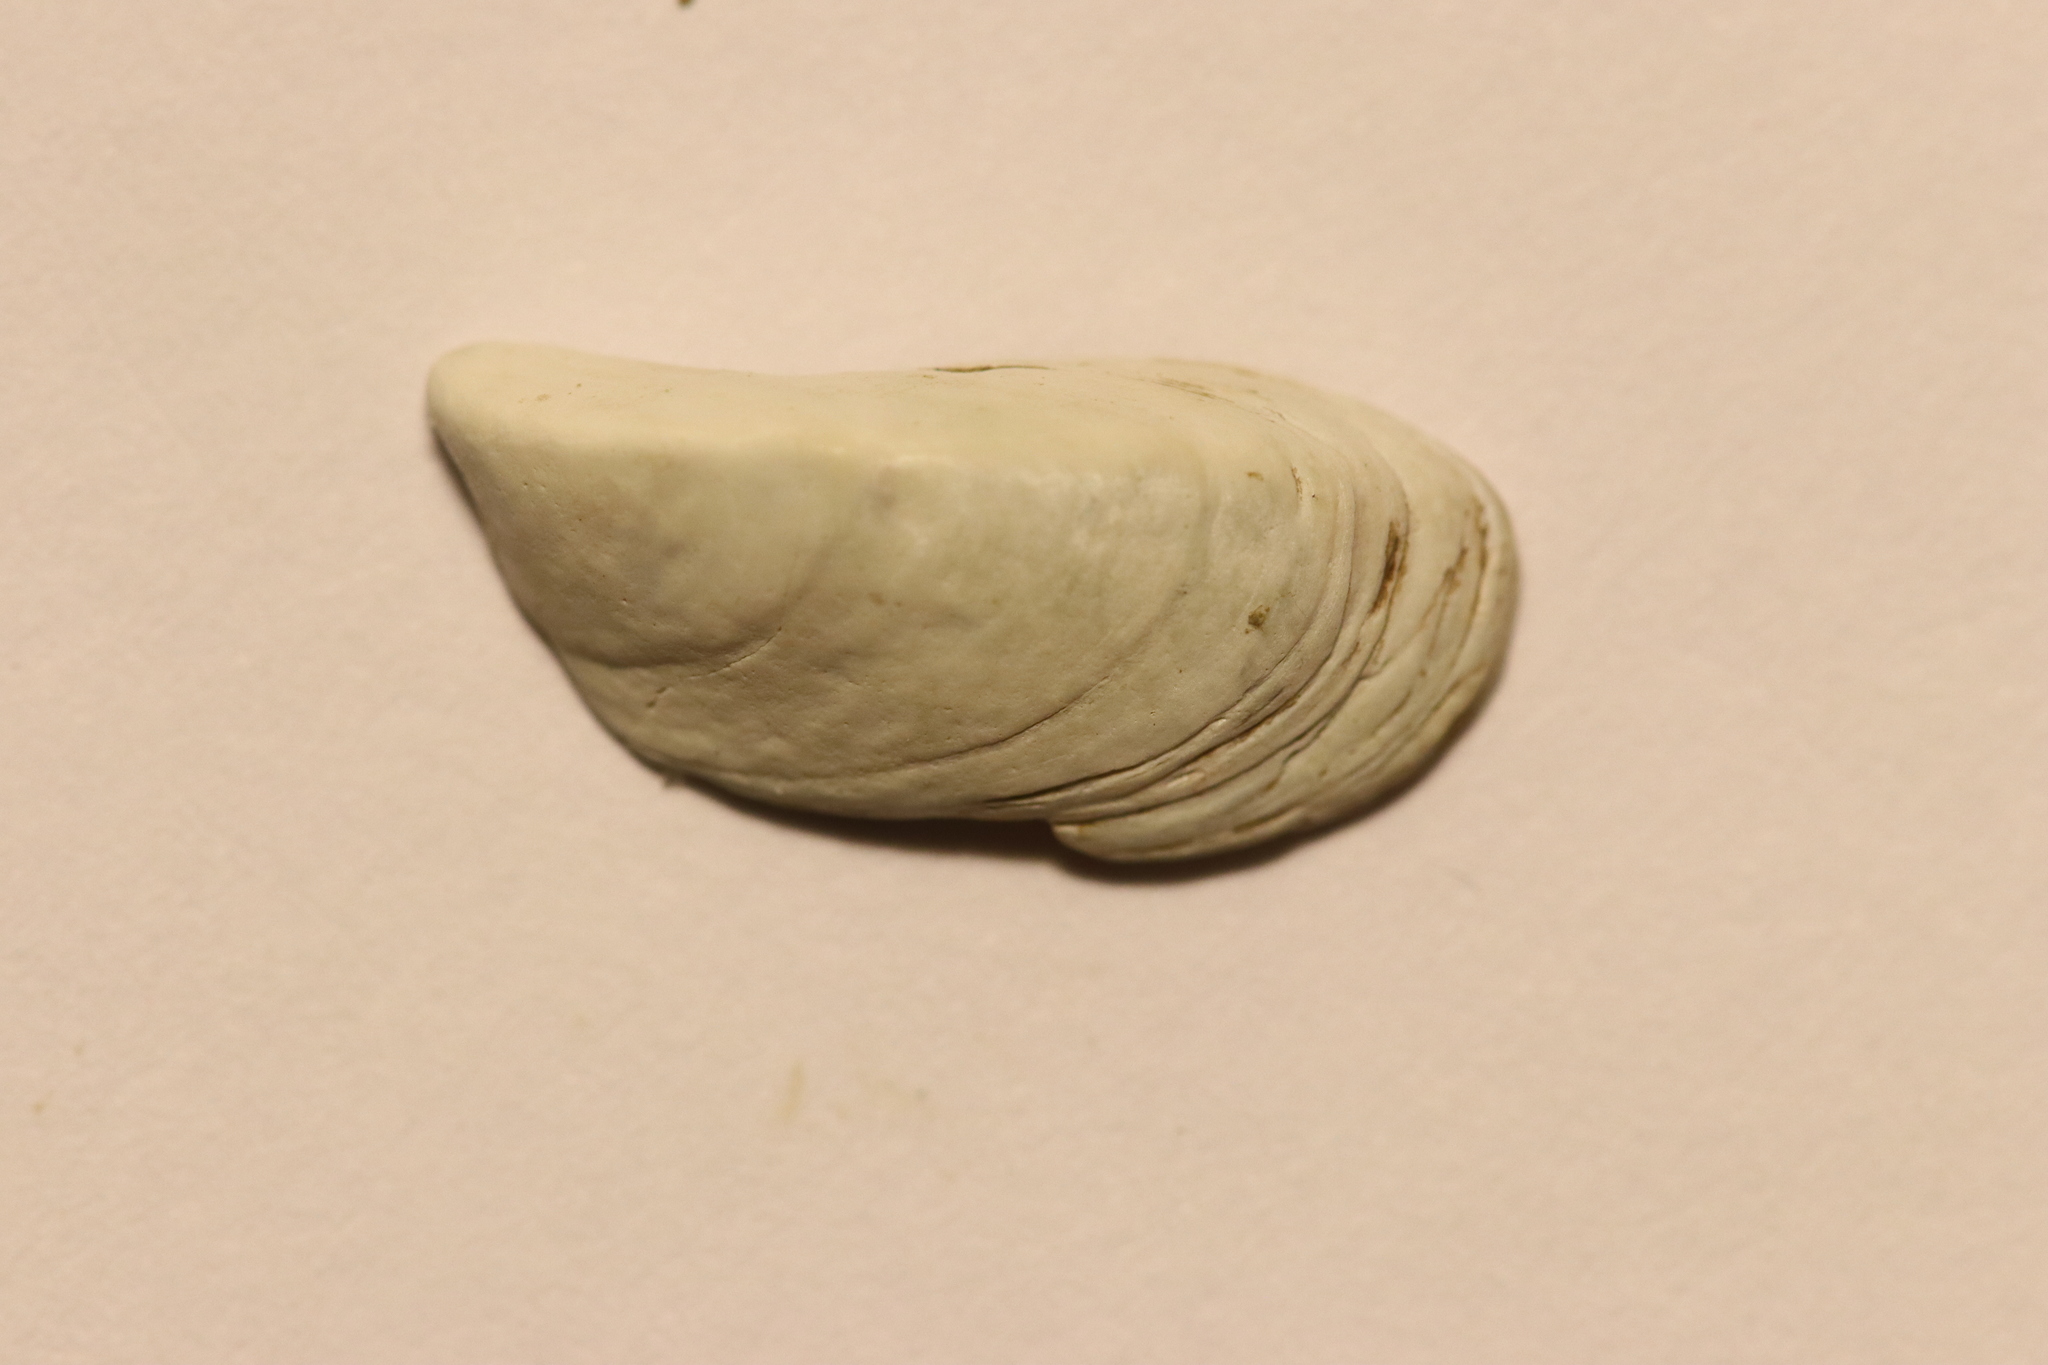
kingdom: Animalia
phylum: Mollusca
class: Bivalvia
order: Myida
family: Dreissenidae
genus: Dreissena
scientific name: Dreissena polymorpha
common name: Zebra mussel
